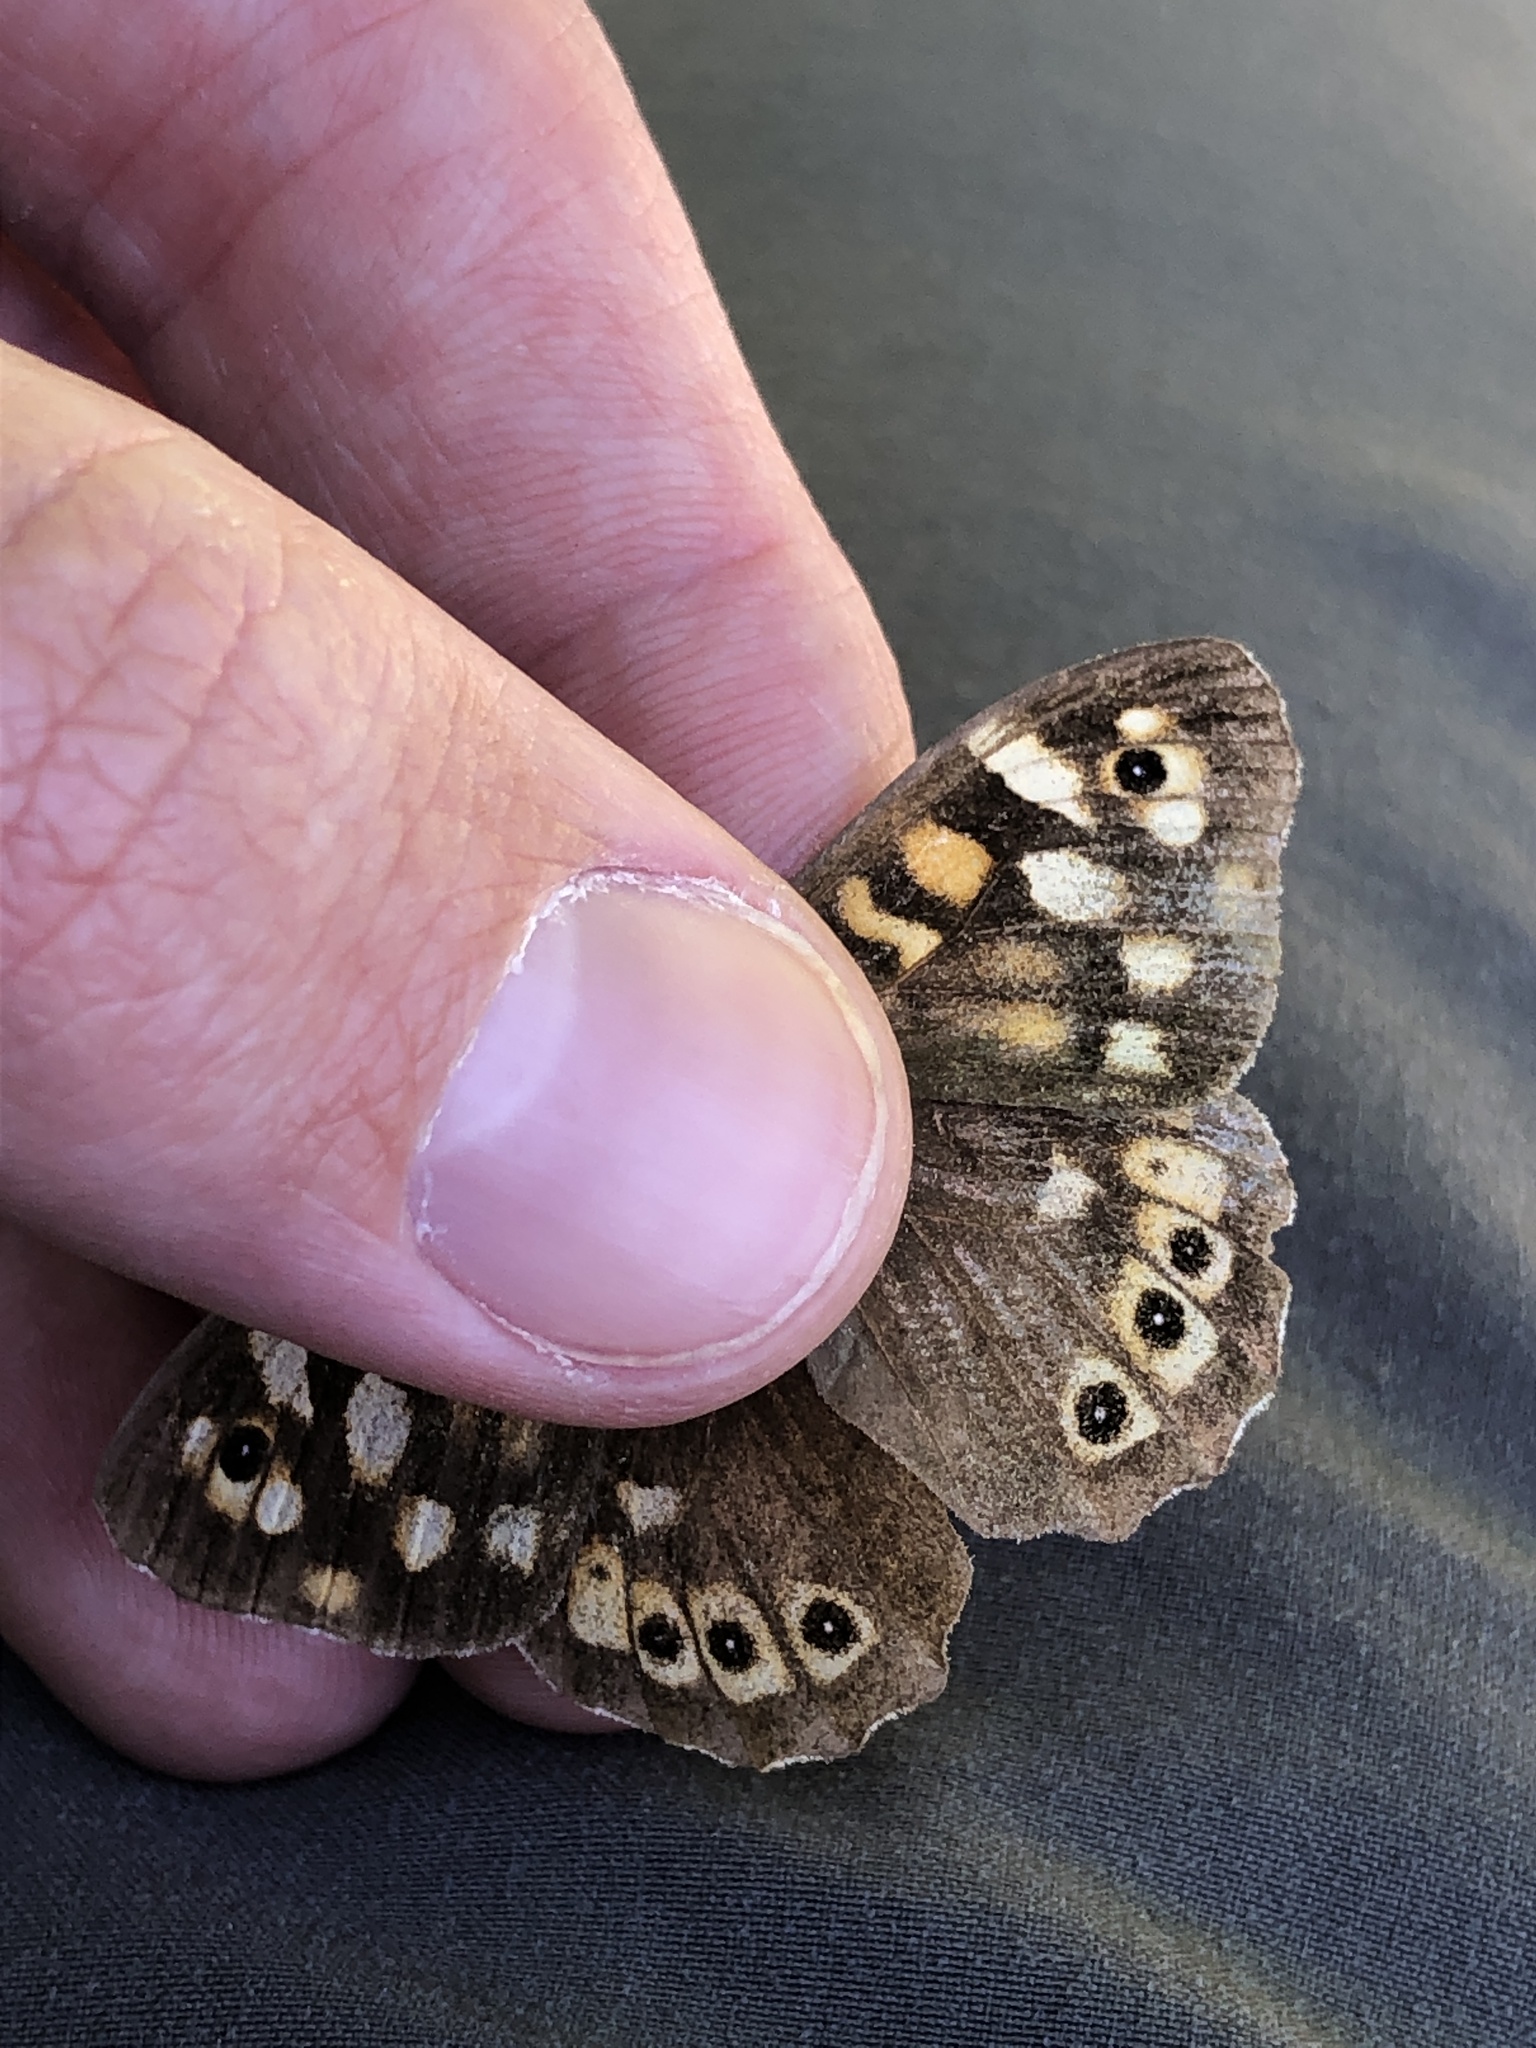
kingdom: Animalia
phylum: Arthropoda
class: Insecta
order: Lepidoptera
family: Nymphalidae
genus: Pararge
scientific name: Pararge aegeria
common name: Speckled wood
